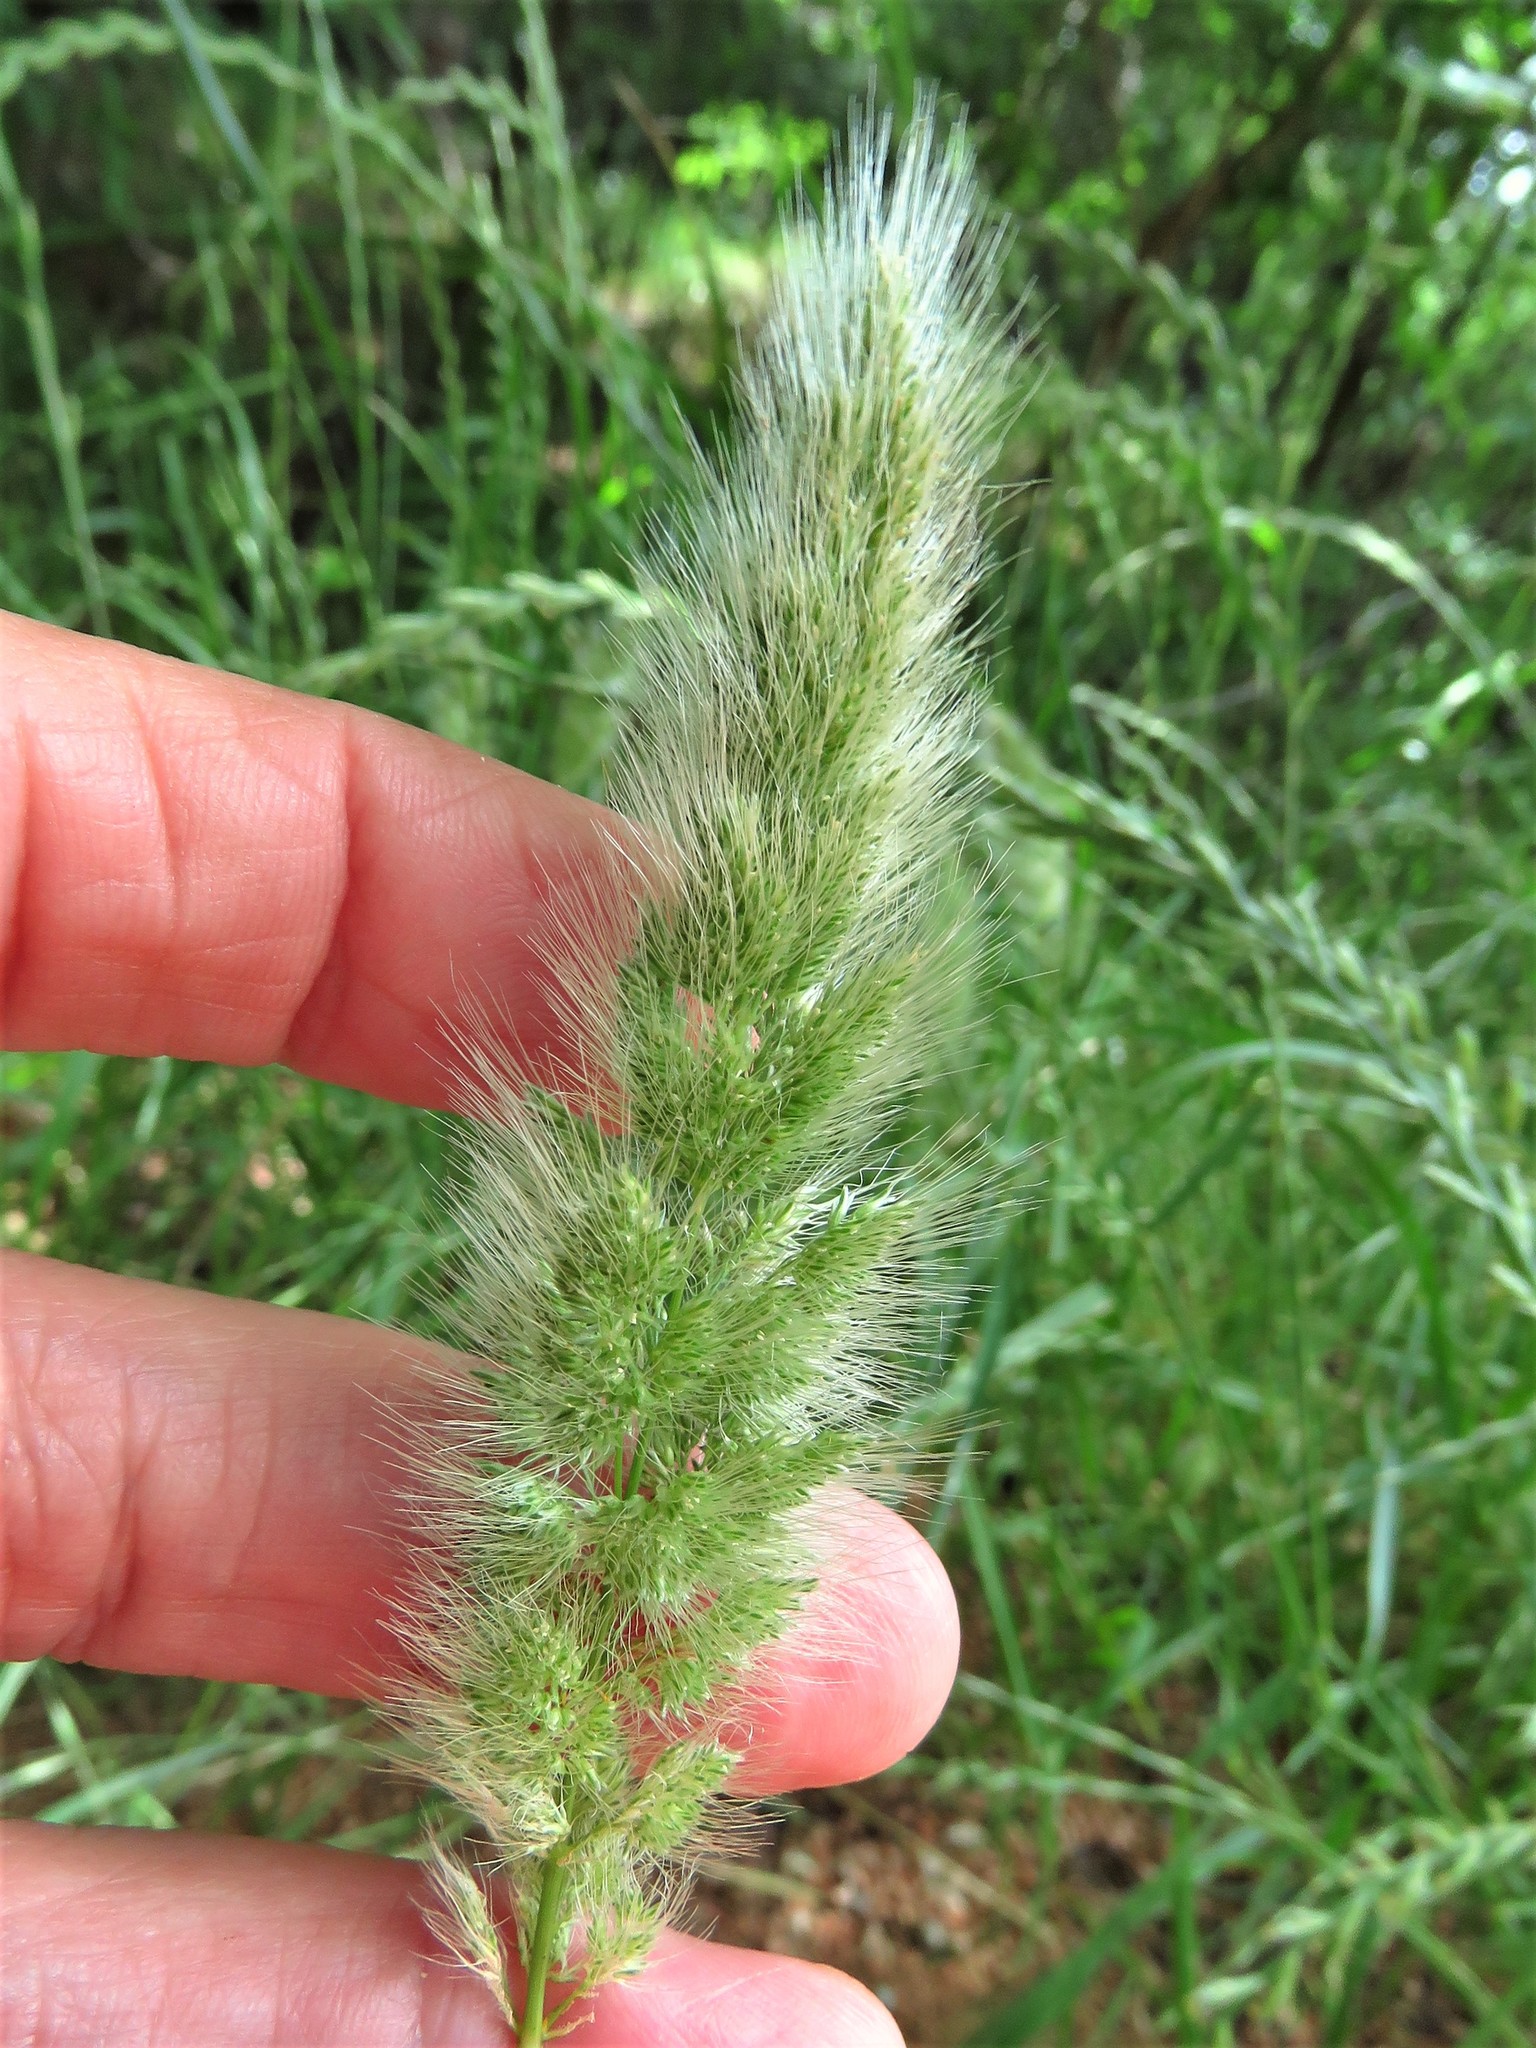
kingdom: Plantae
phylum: Tracheophyta
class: Liliopsida
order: Poales
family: Poaceae
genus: Polypogon
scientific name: Polypogon monspeliensis
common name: Annual rabbitsfoot grass
